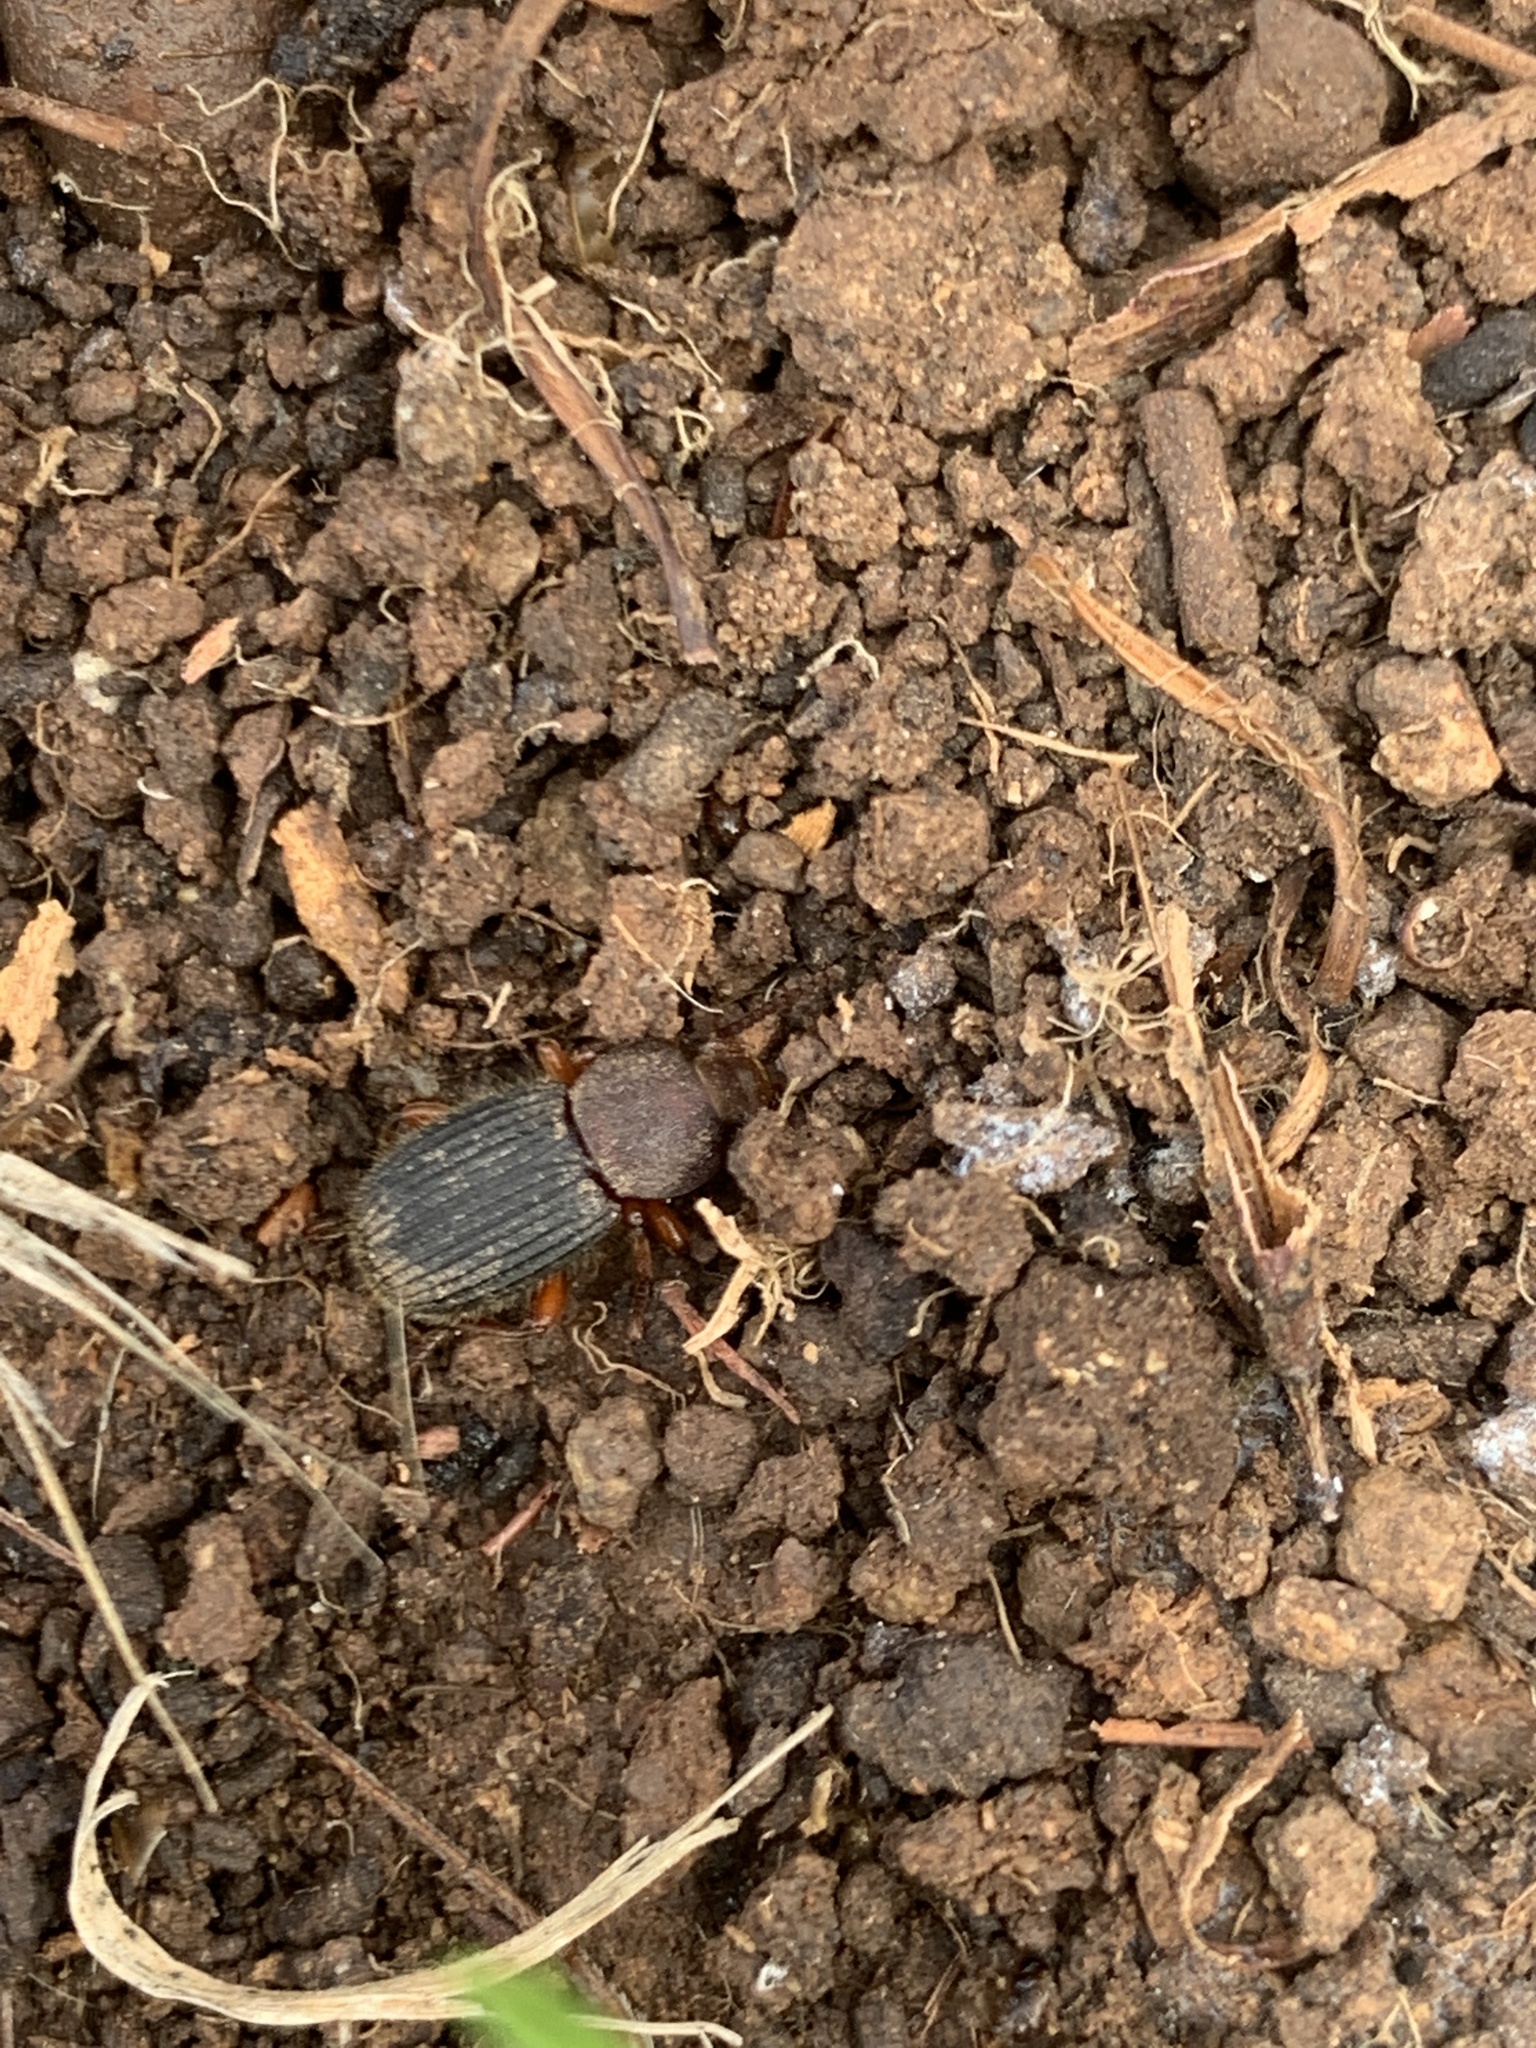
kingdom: Animalia
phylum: Arthropoda
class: Insecta
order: Coleoptera
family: Tenebrionidae
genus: Apsena
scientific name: Apsena pubescens
